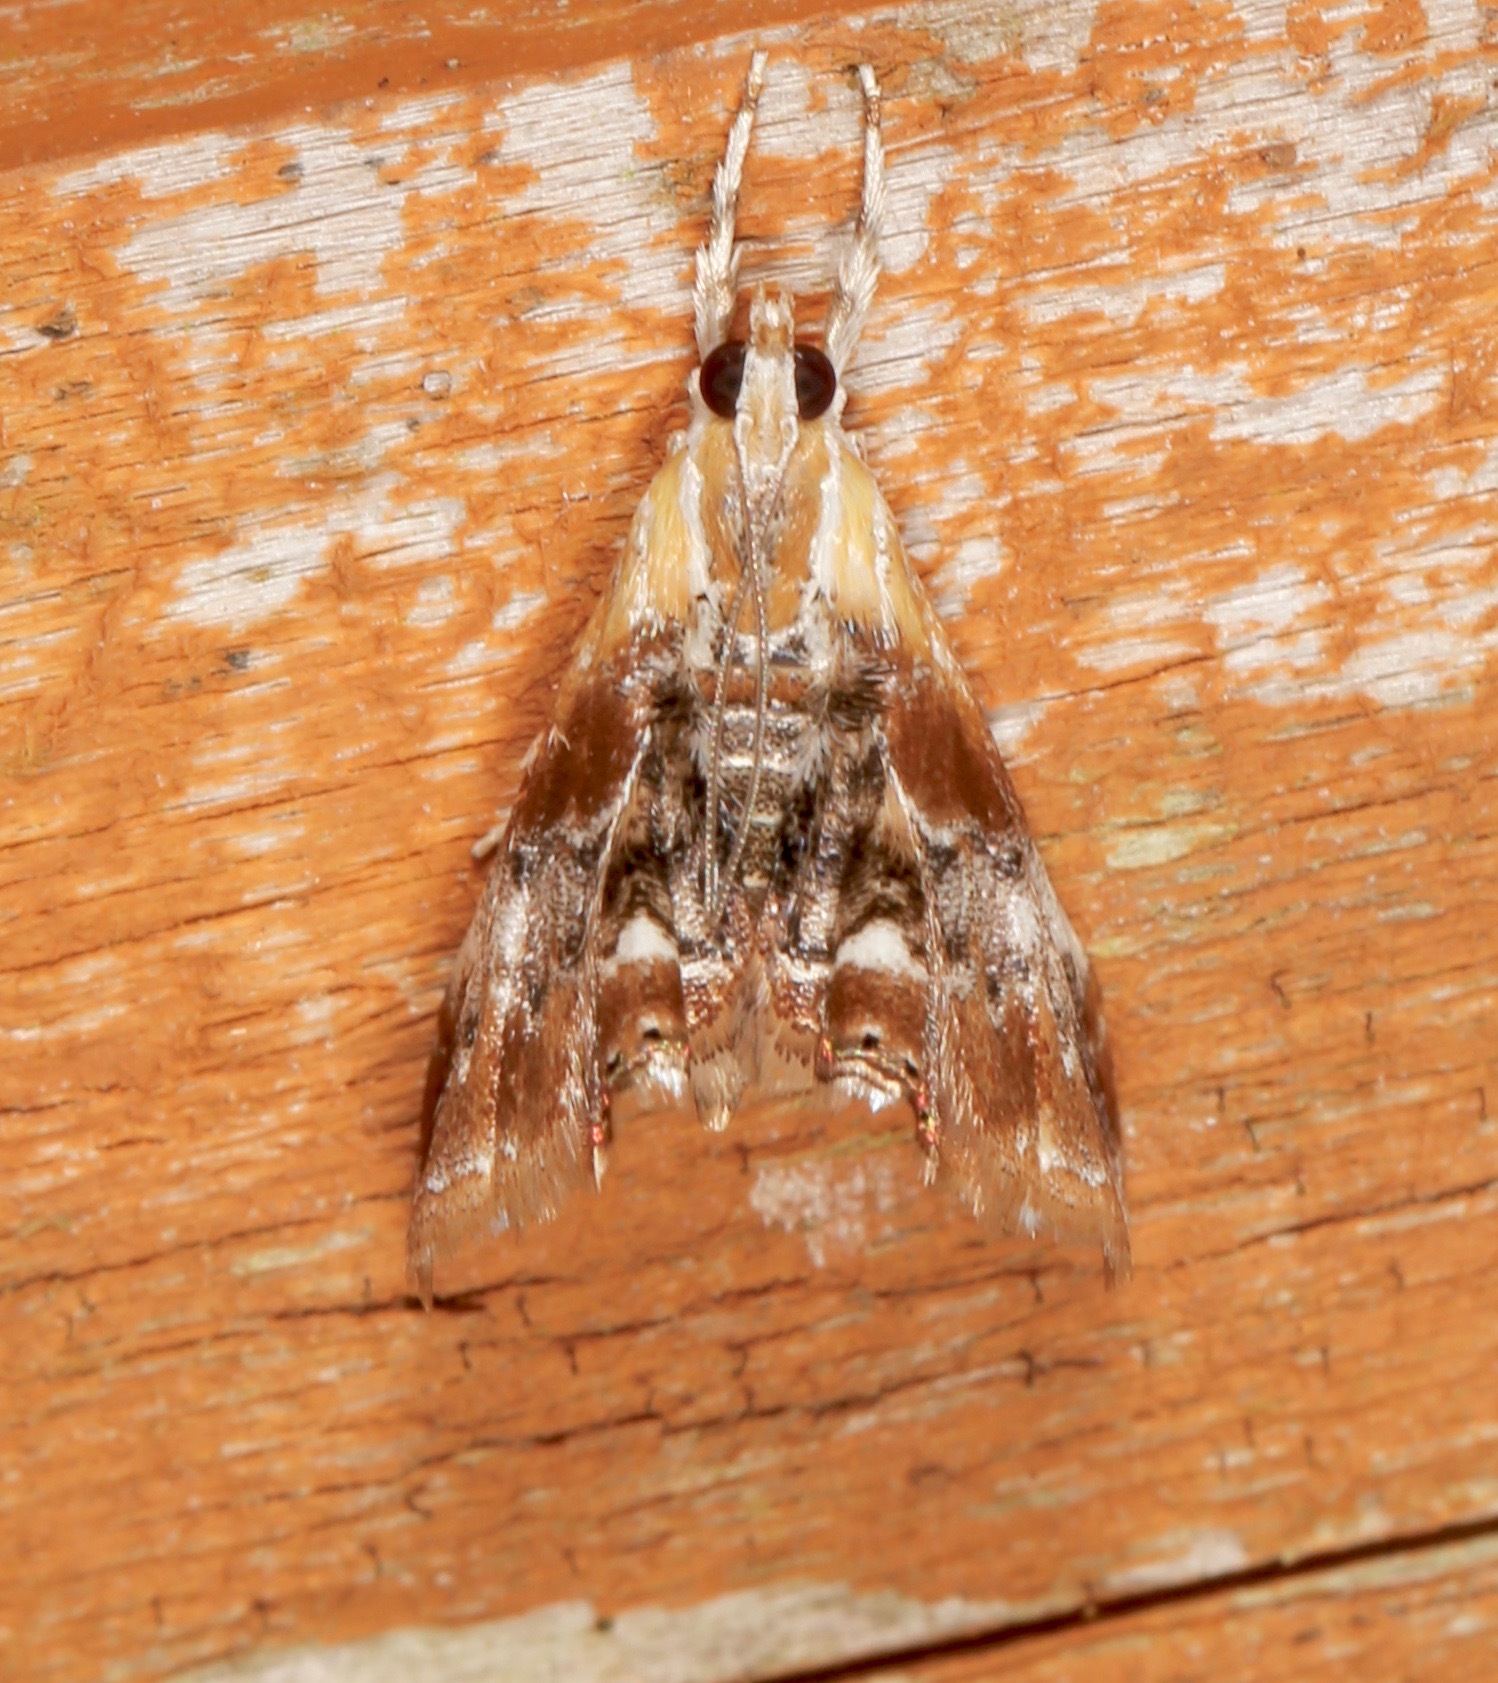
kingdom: Animalia
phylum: Arthropoda
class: Insecta
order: Lepidoptera
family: Crambidae
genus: Dicymolomia
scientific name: Dicymolomia julianalis
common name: Julia's dicymolomia moth
